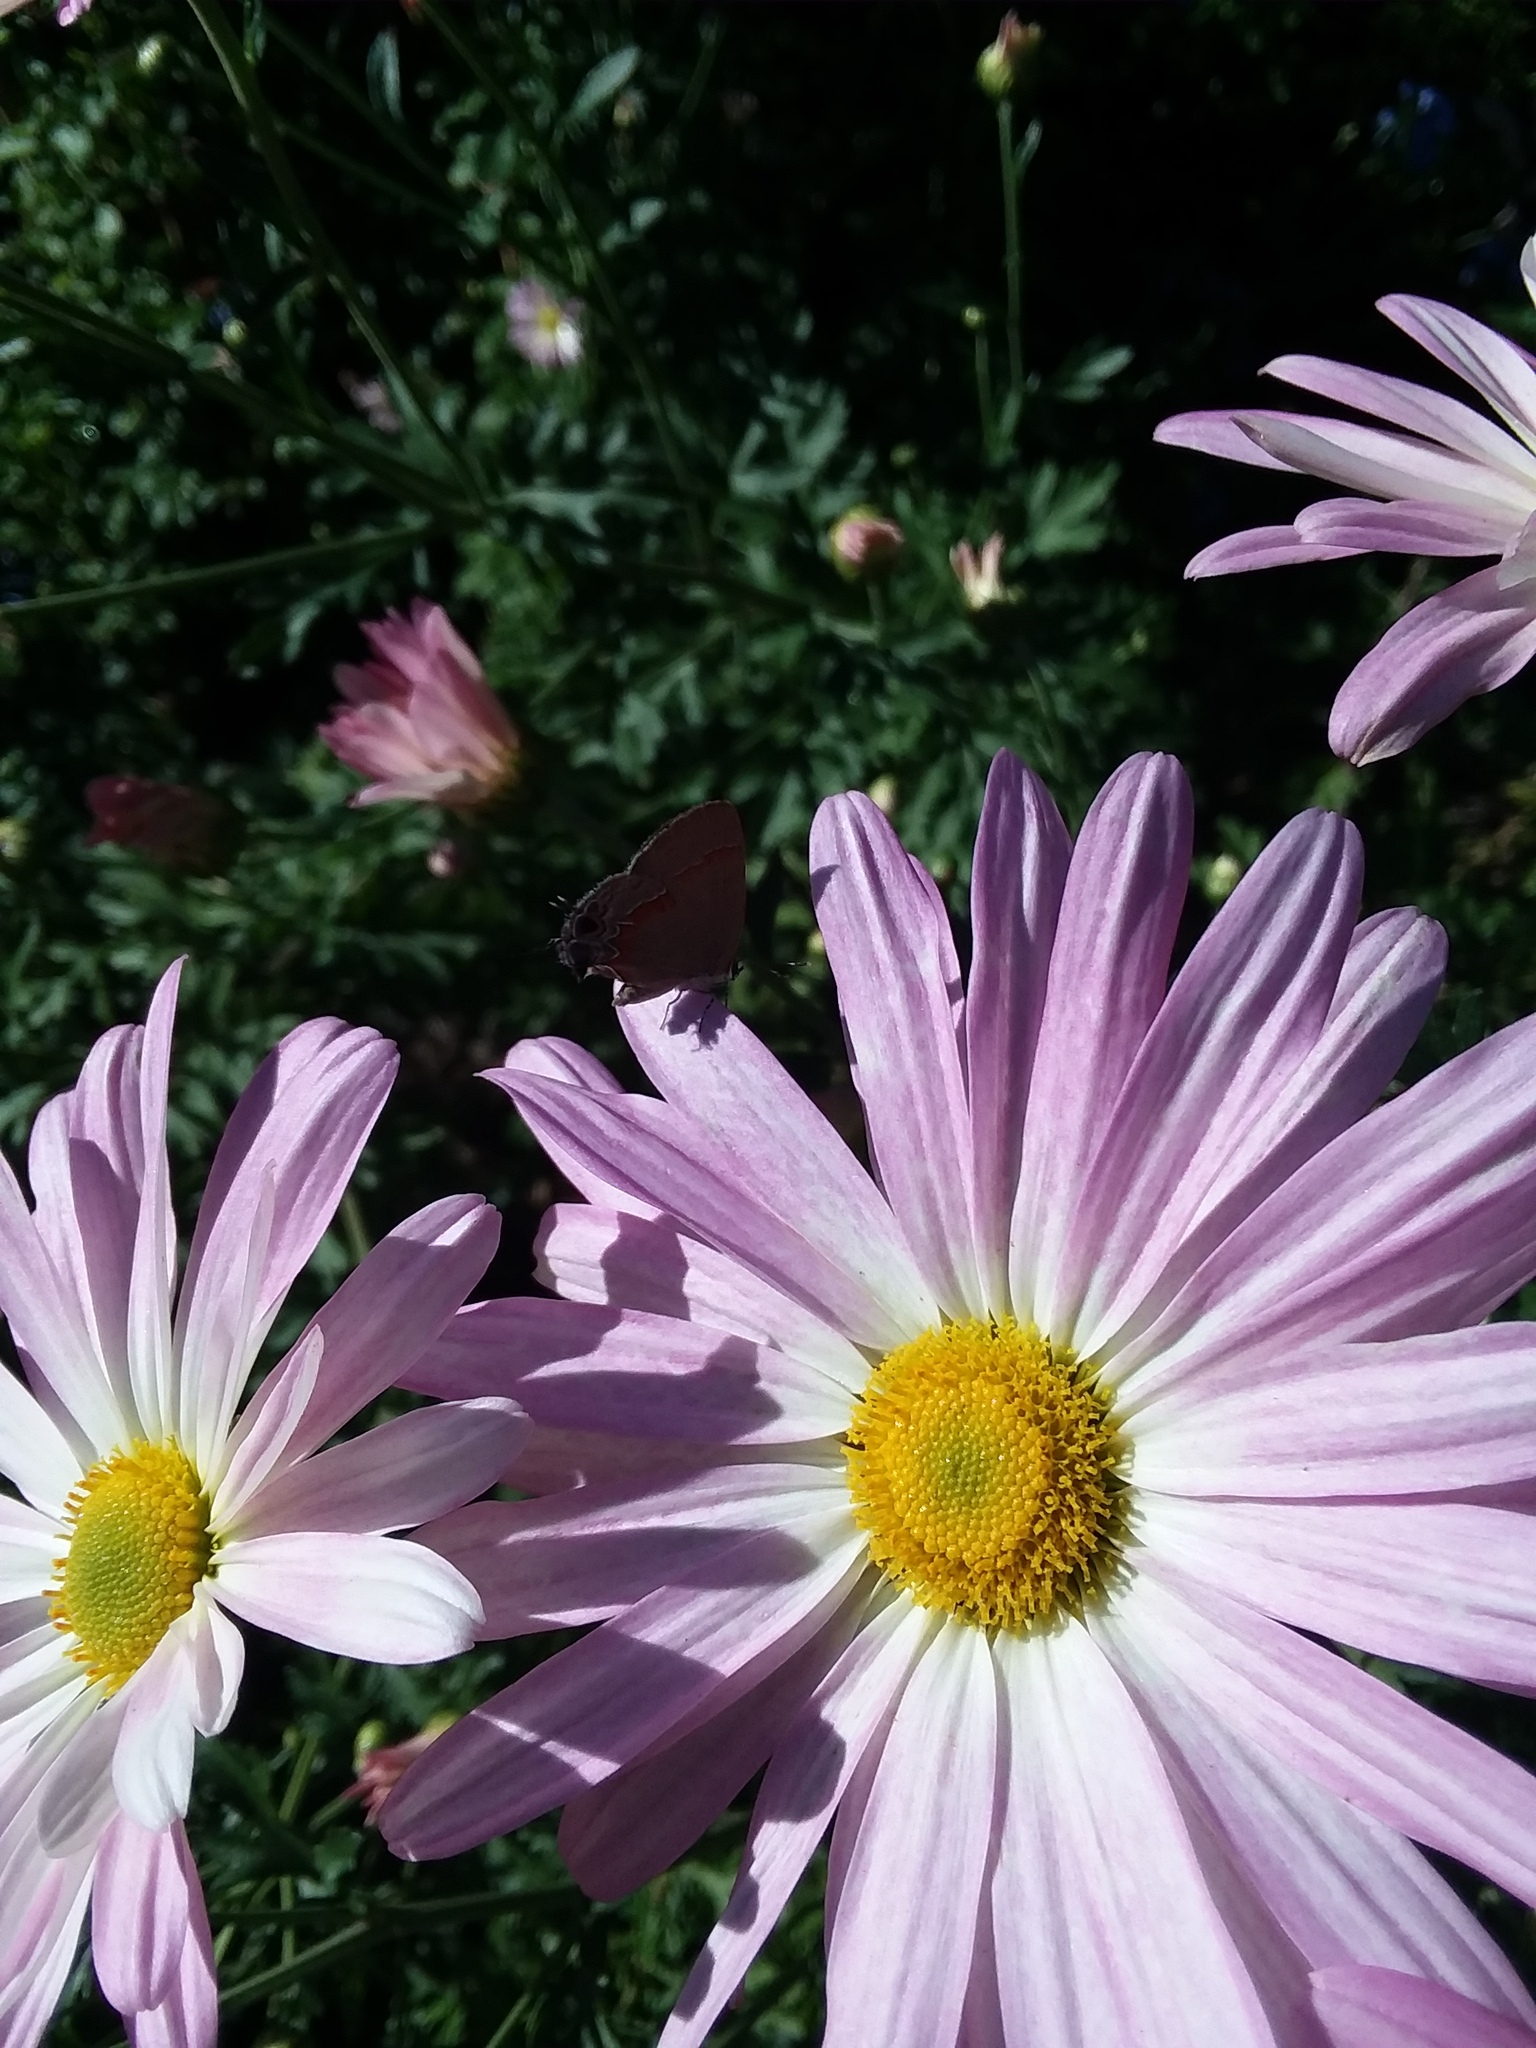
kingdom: Animalia
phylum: Arthropoda
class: Insecta
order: Lepidoptera
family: Lycaenidae
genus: Calycopis
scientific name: Calycopis cecrops
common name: Red-banded hairstreak
